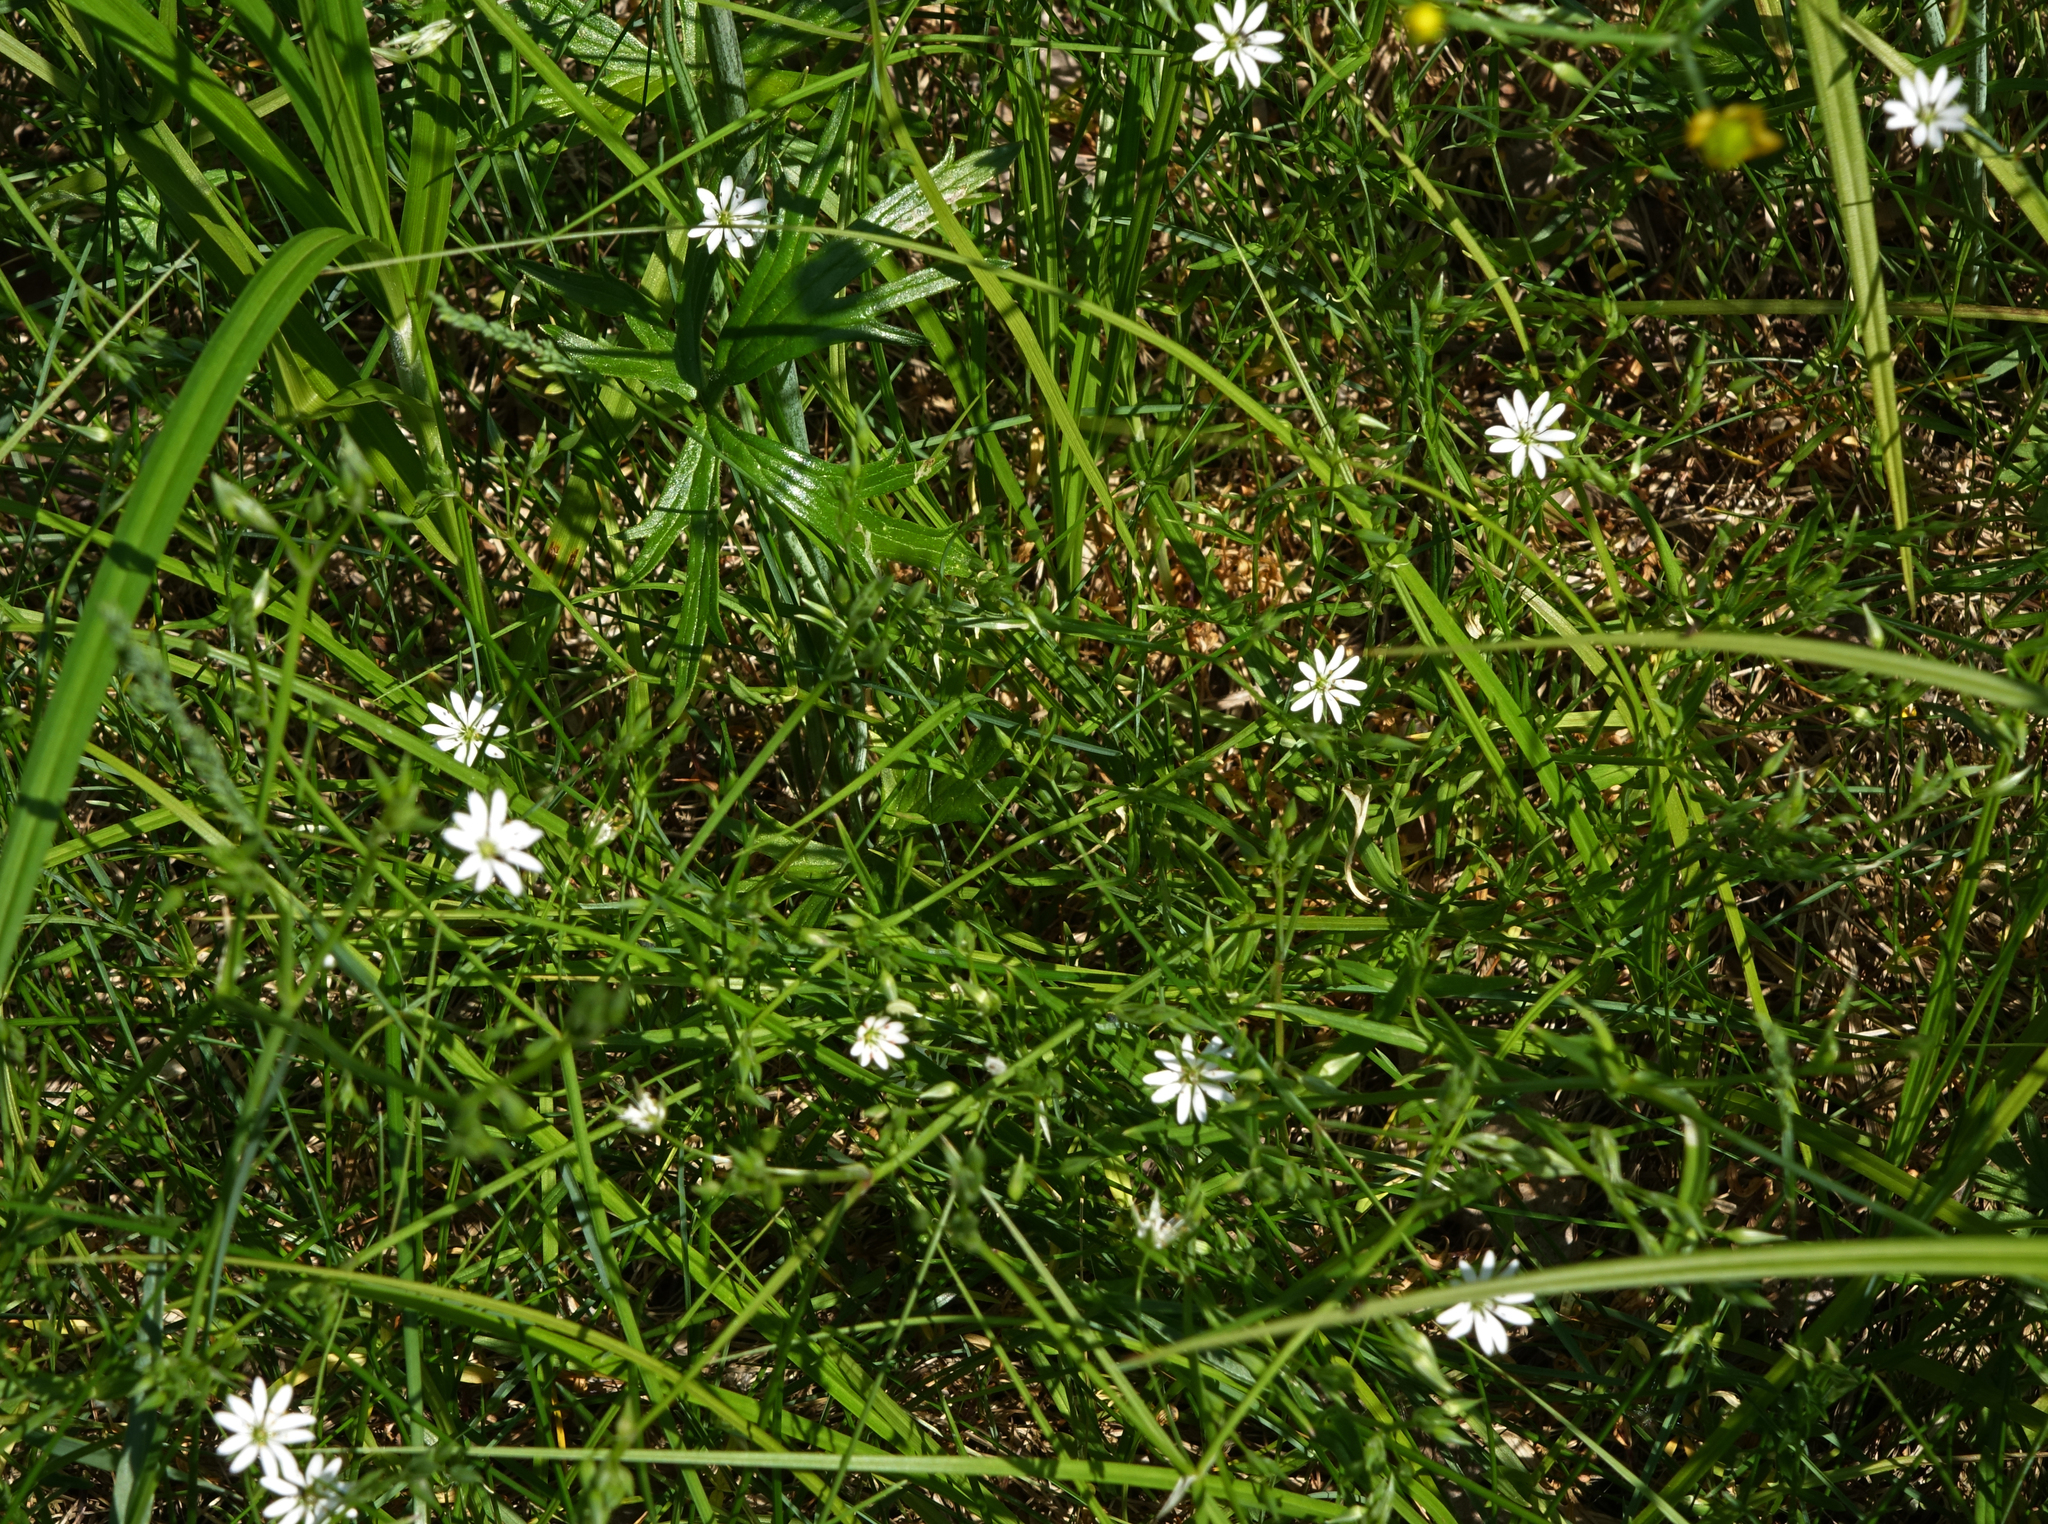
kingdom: Plantae
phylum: Tracheophyta
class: Magnoliopsida
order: Caryophyllales
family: Caryophyllaceae
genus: Stellaria
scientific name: Stellaria graminea
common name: Grass-like starwort
